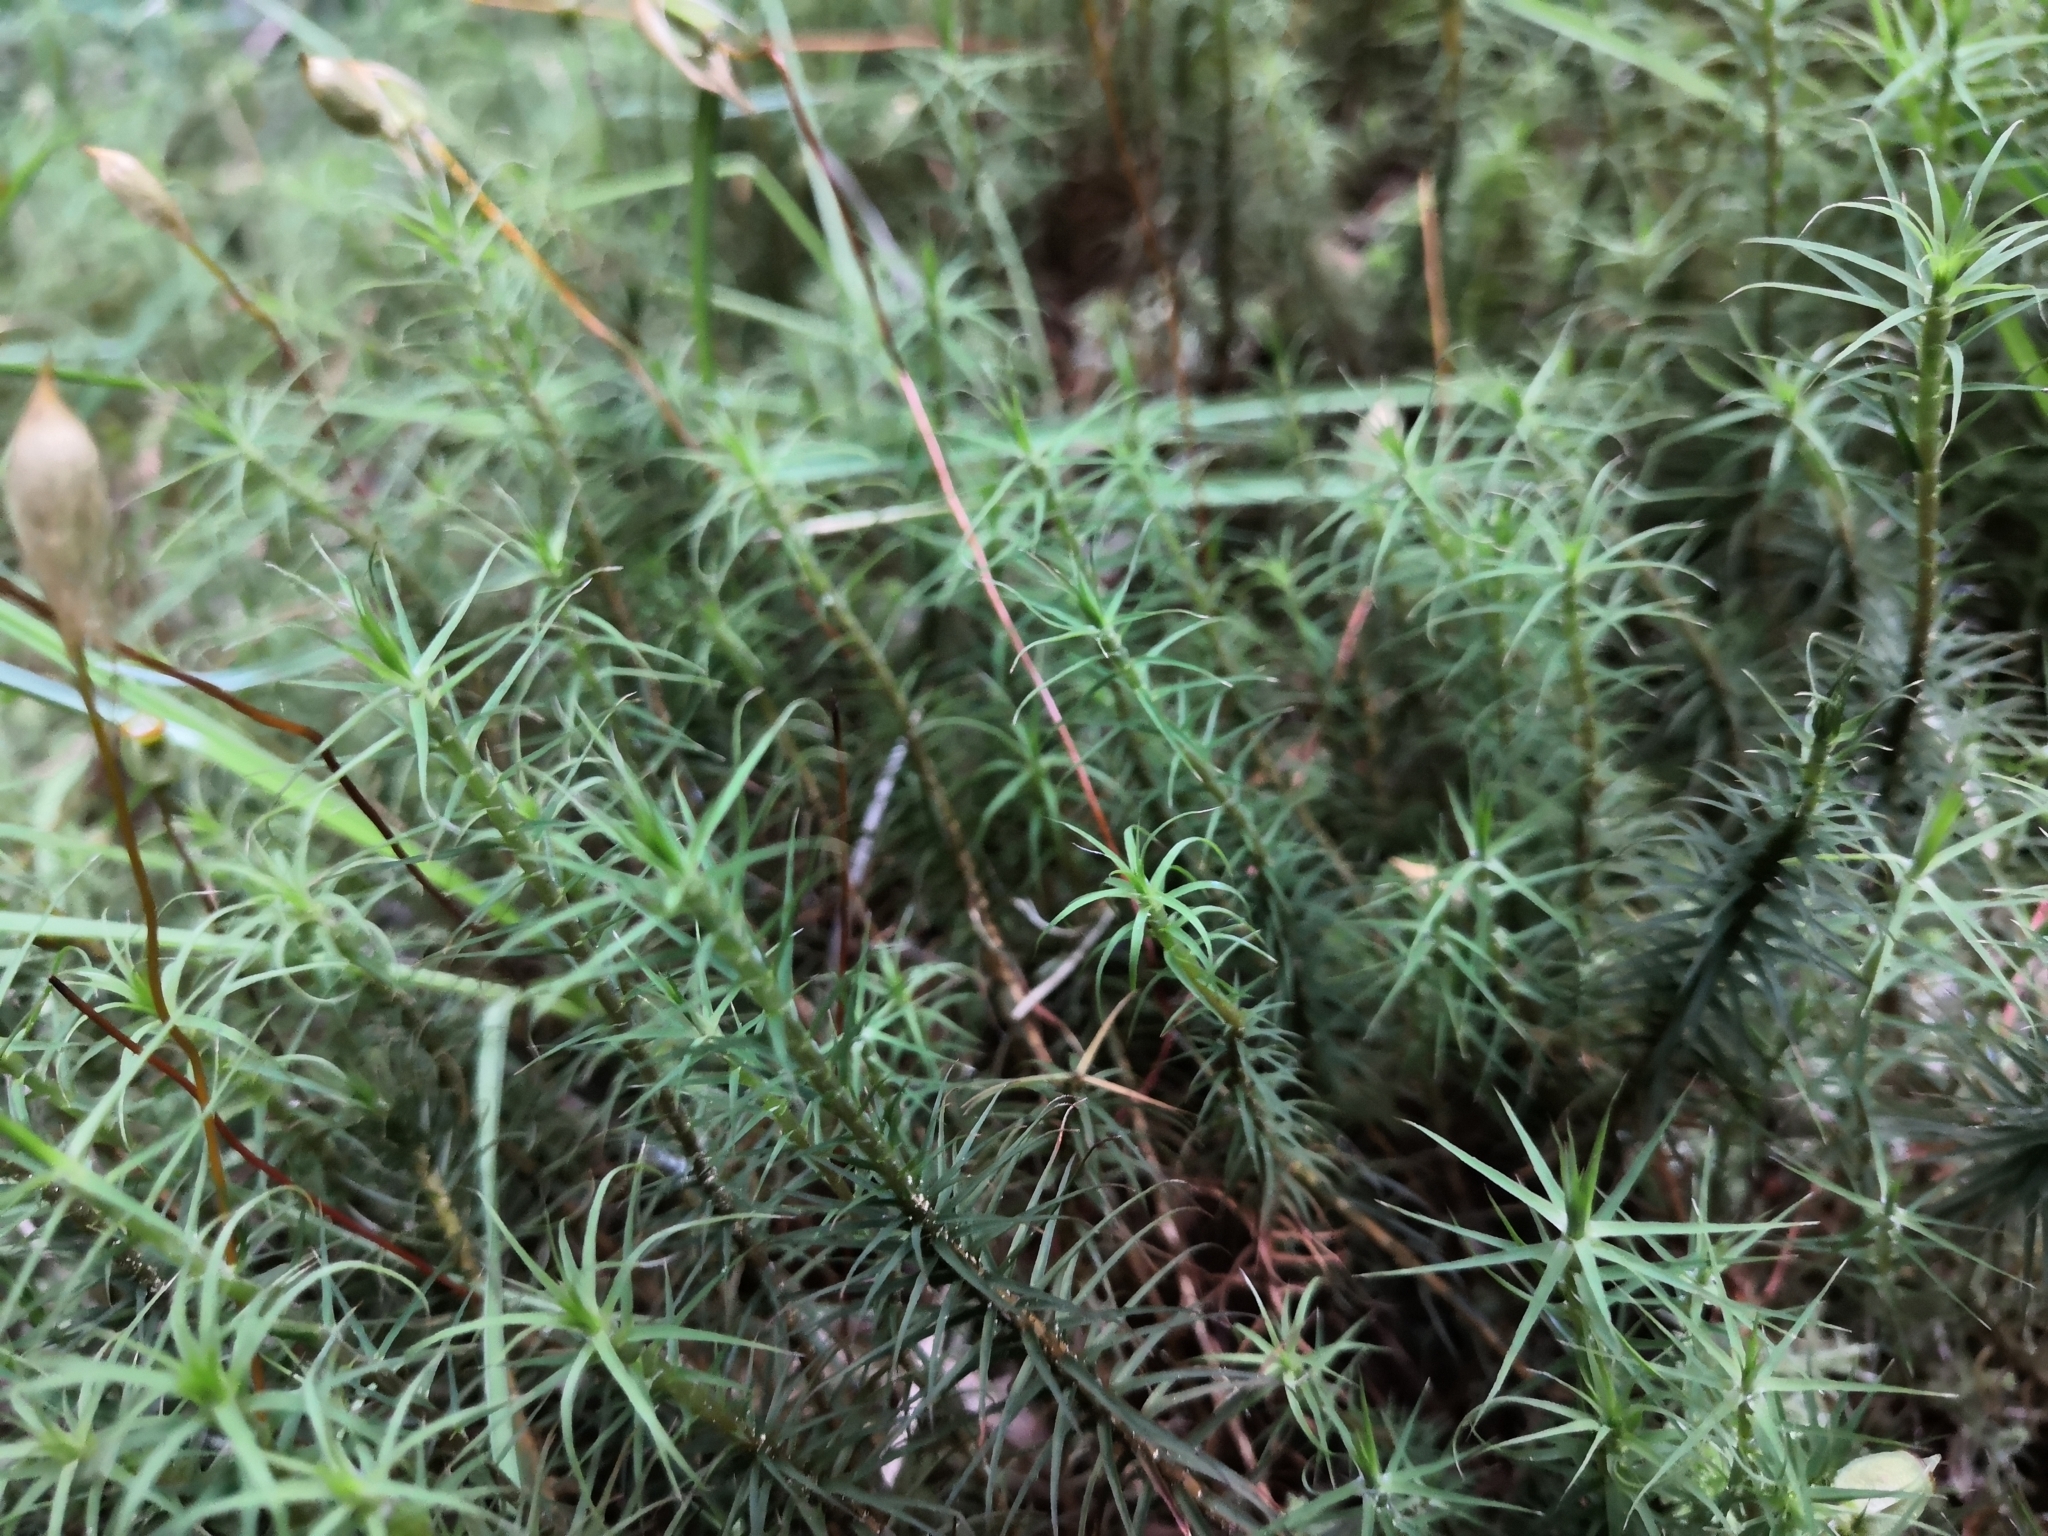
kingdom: Plantae
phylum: Bryophyta
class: Polytrichopsida
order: Polytrichales
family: Polytrichaceae
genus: Polytrichum
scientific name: Polytrichum commune
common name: Common haircap
